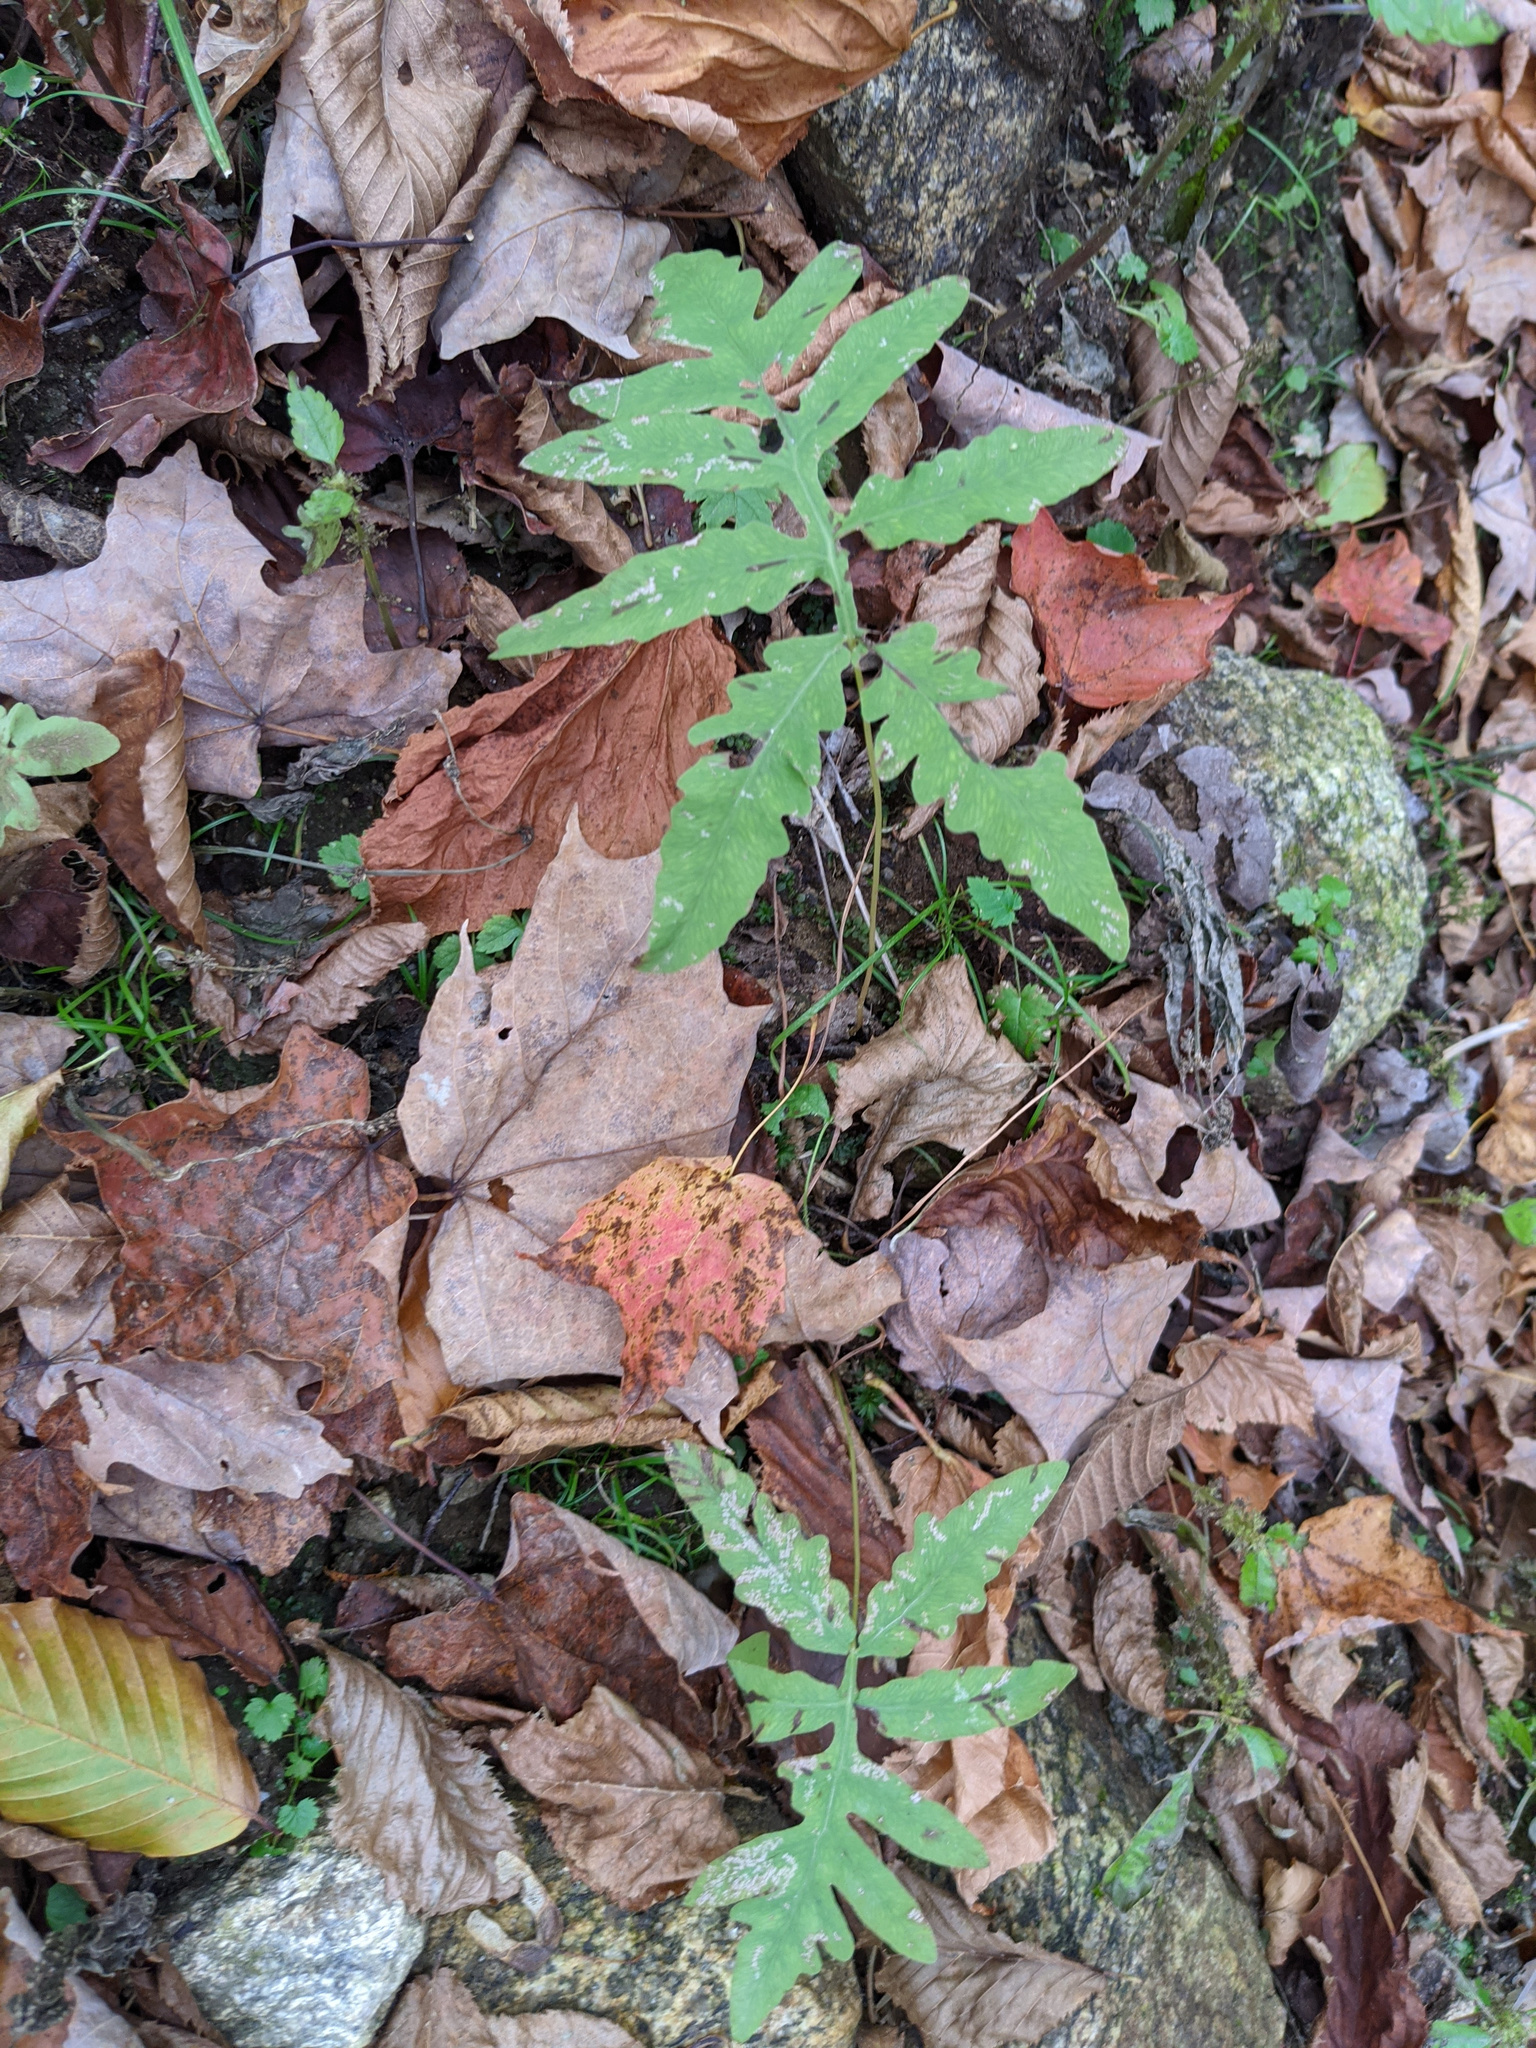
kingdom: Plantae
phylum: Tracheophyta
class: Polypodiopsida
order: Polypodiales
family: Onocleaceae
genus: Onoclea
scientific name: Onoclea sensibilis
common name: Sensitive fern
